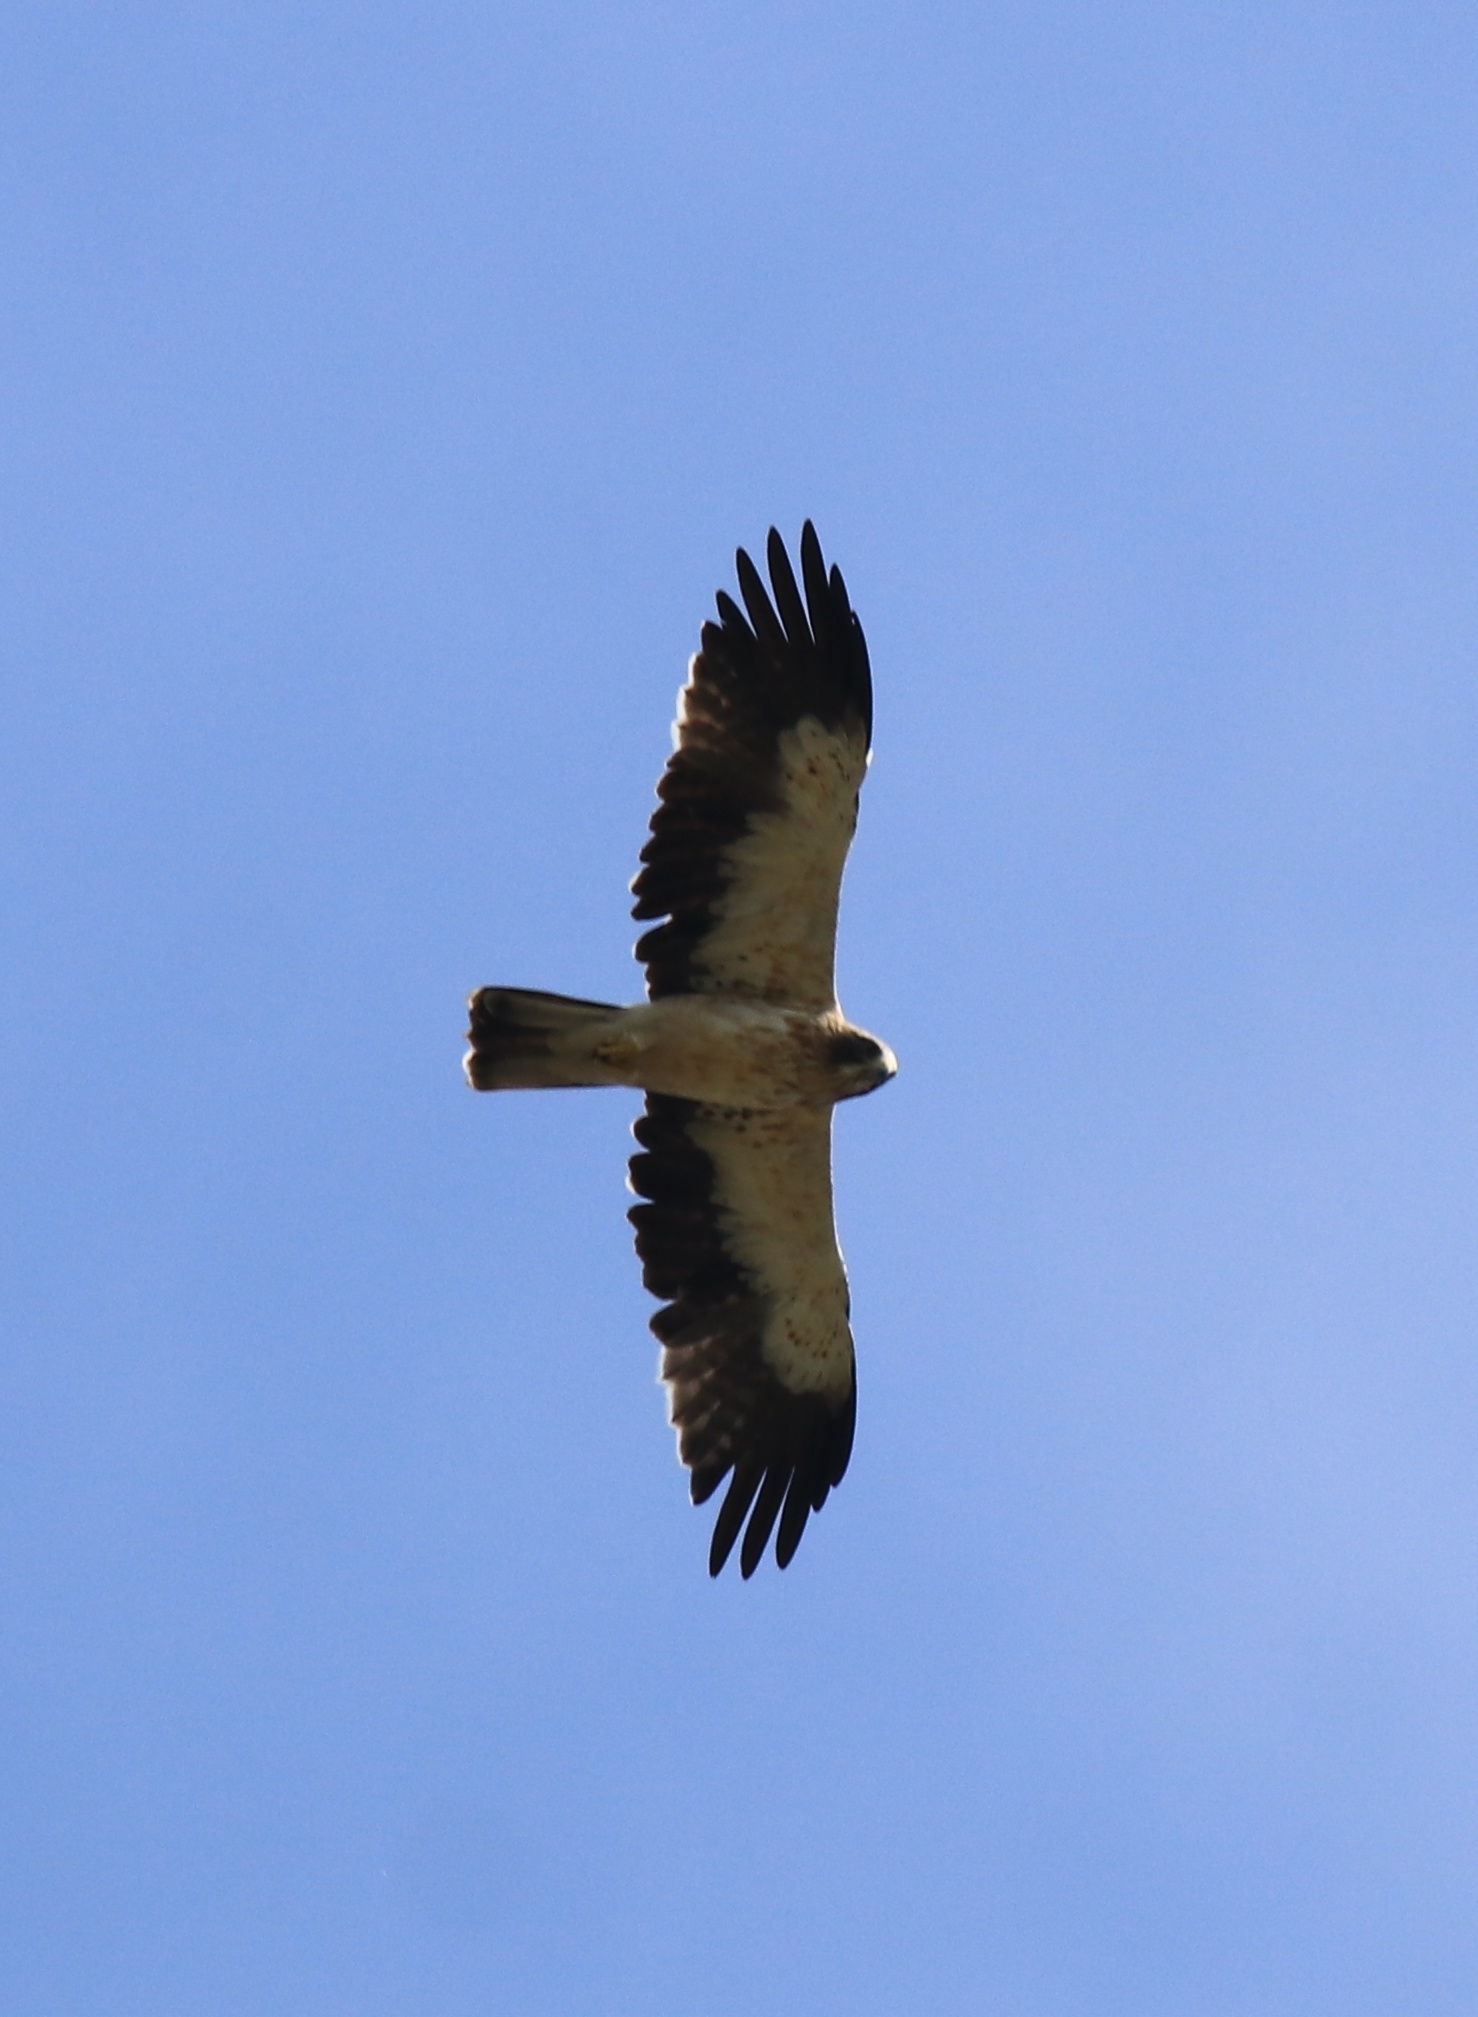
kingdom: Animalia
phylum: Chordata
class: Aves
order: Accipitriformes
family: Accipitridae
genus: Hieraaetus
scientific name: Hieraaetus pennatus
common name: Booted eagle
